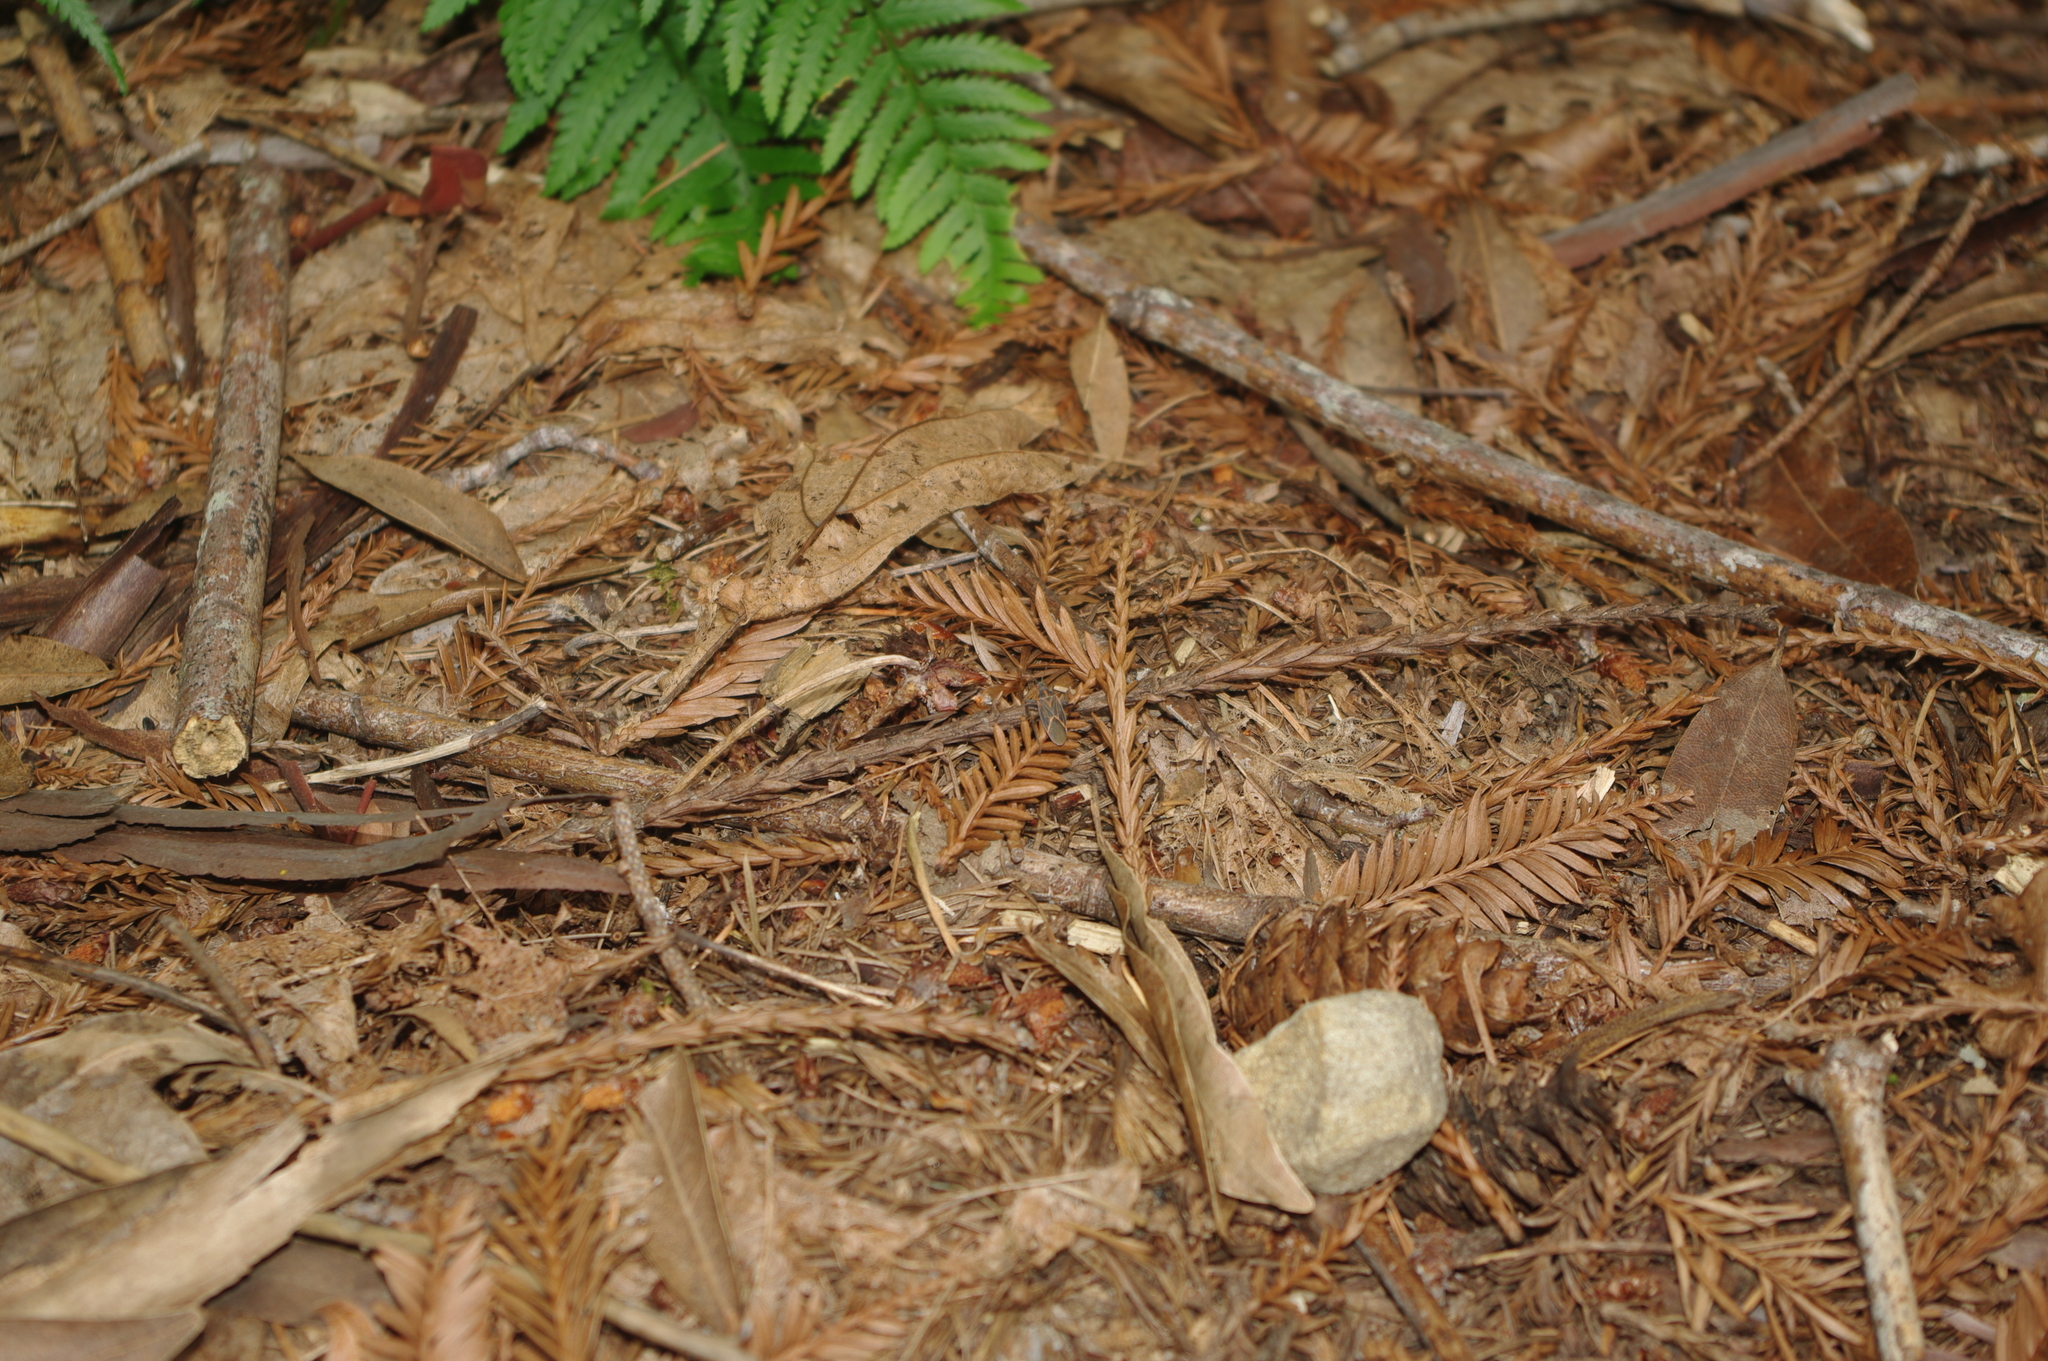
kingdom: Animalia
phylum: Arthropoda
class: Insecta
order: Hemiptera
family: Rhopalidae
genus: Boisea
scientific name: Boisea rubrolineata
